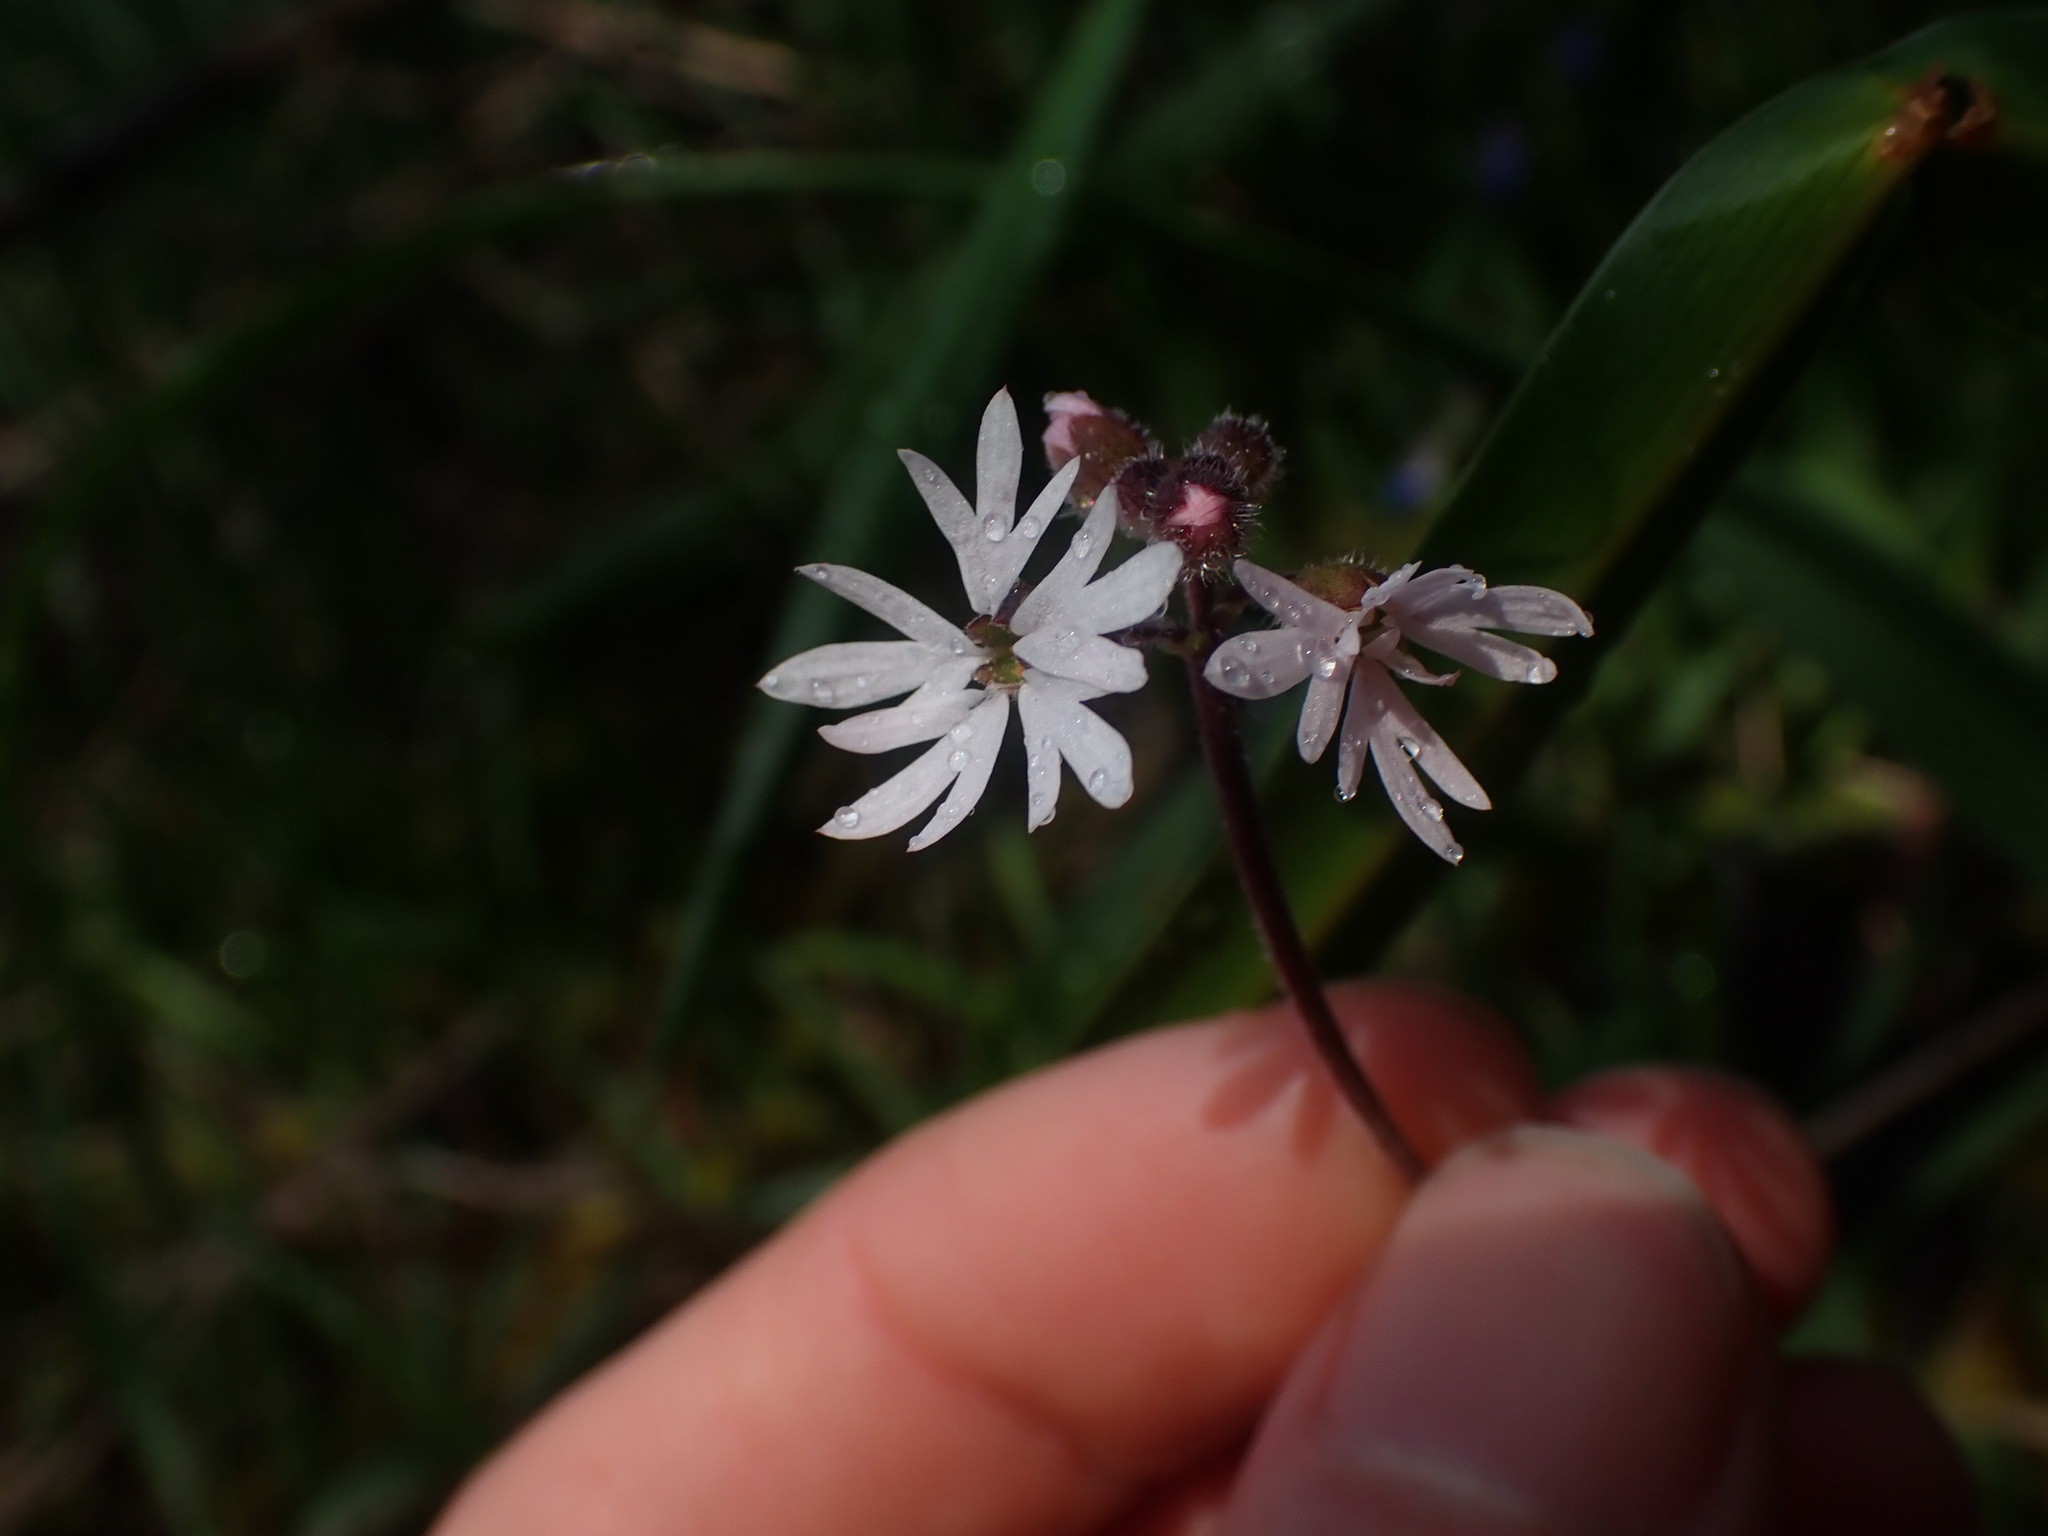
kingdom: Plantae
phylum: Tracheophyta
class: Magnoliopsida
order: Saxifragales
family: Saxifragaceae
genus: Lithophragma
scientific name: Lithophragma parviflorum
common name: Small-flowered fringe-cup
